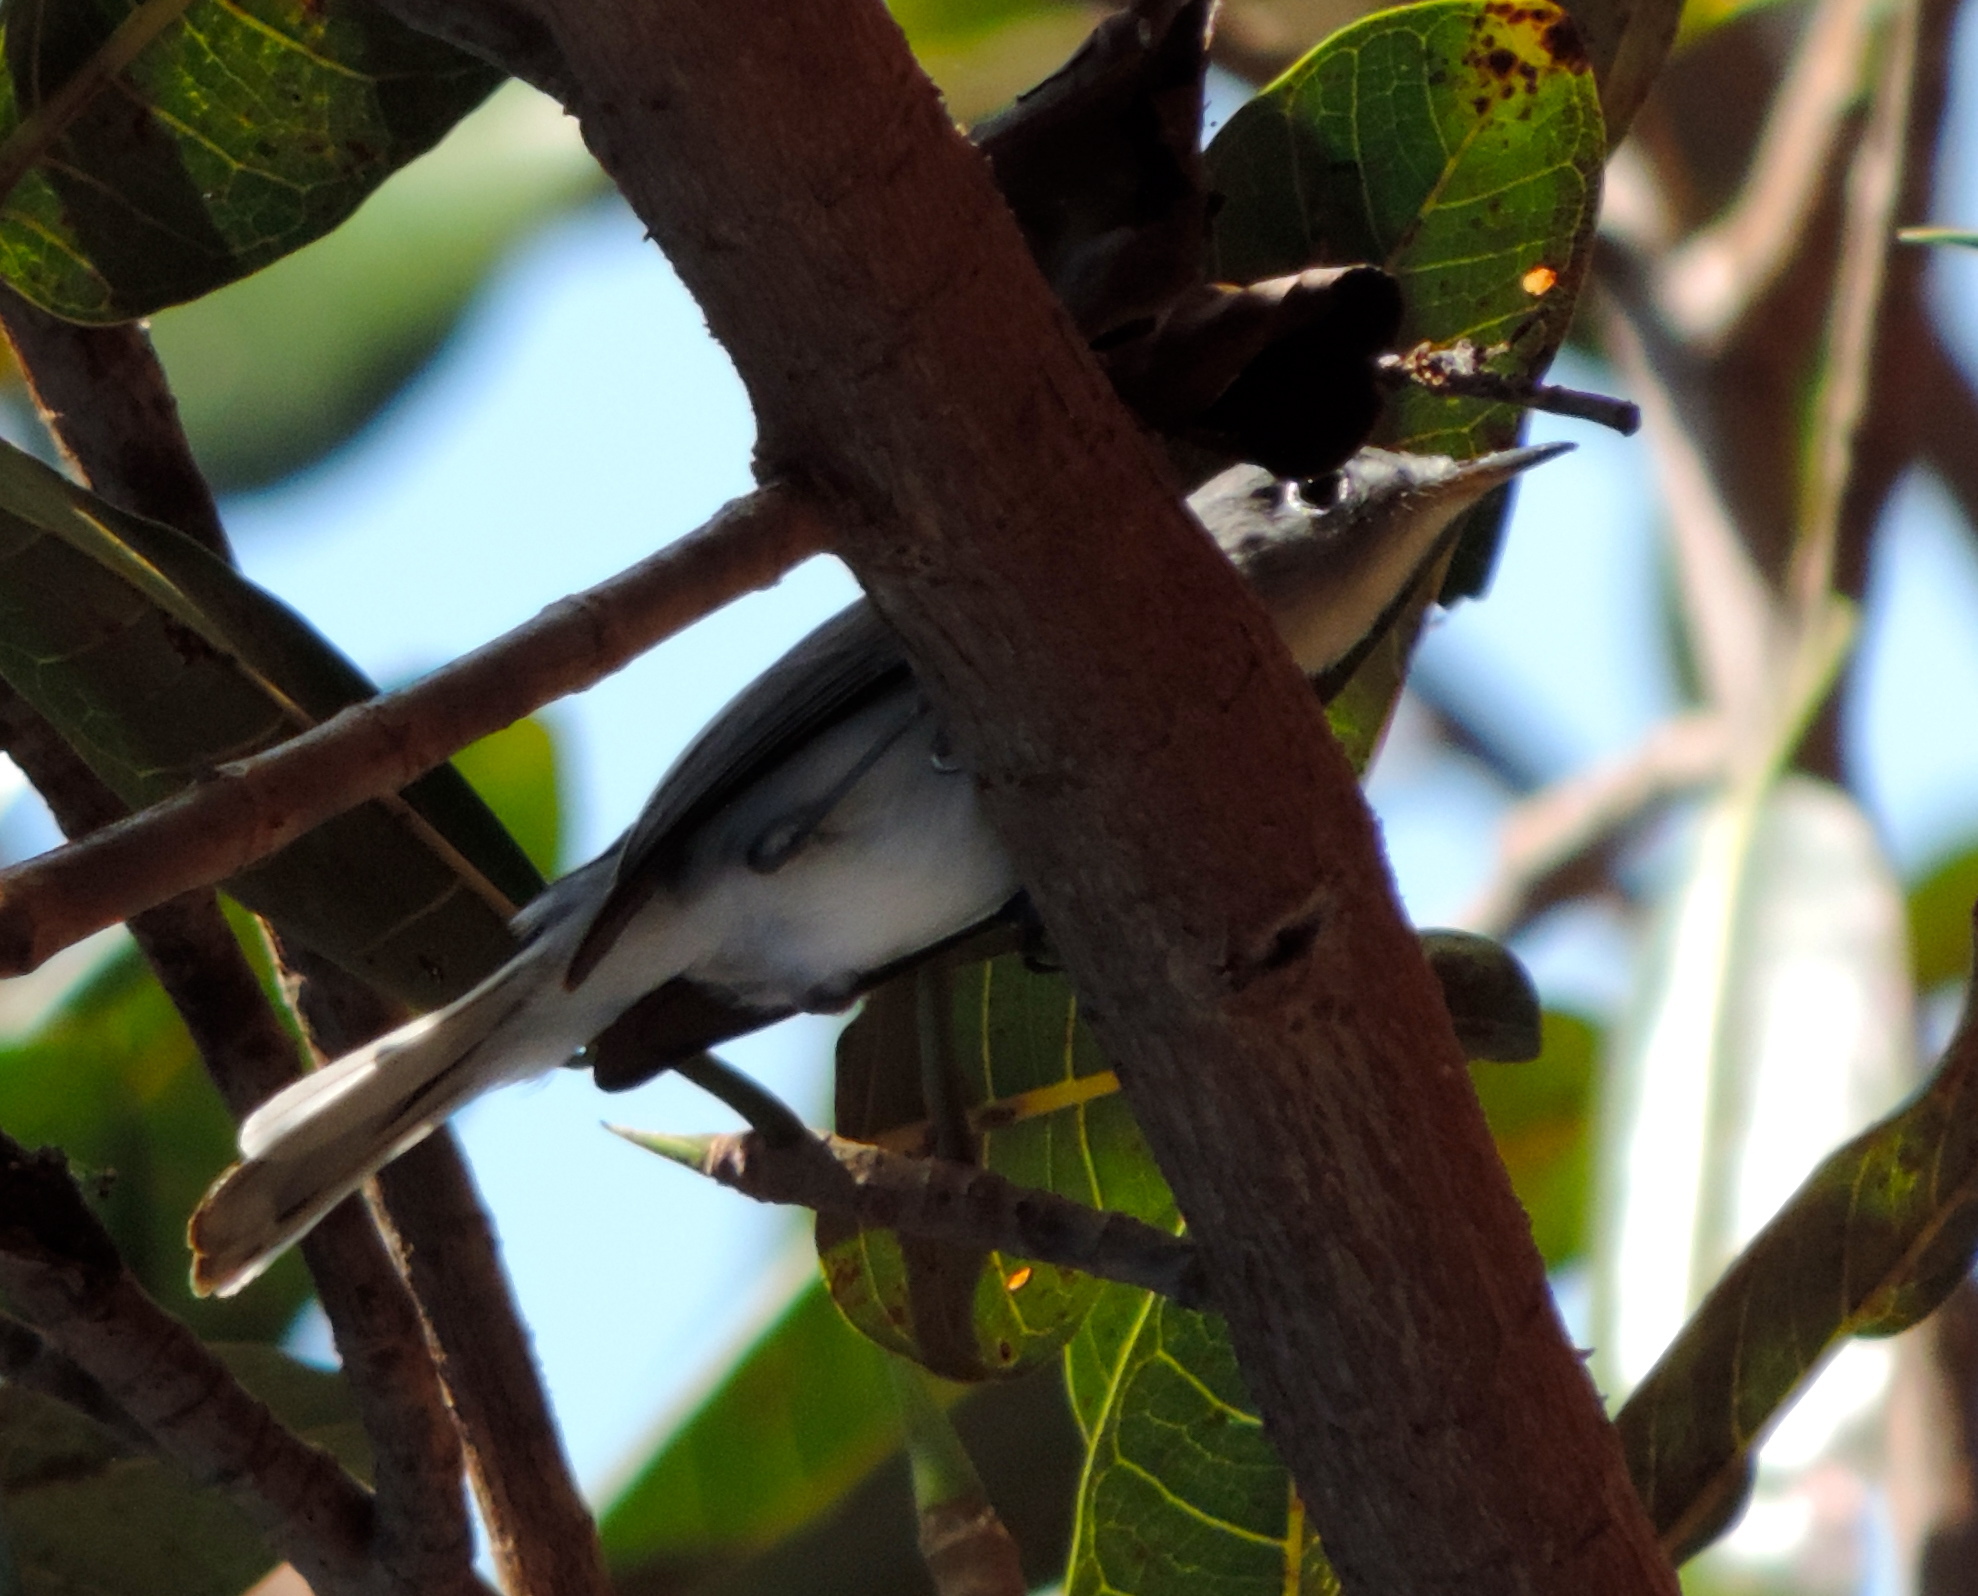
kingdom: Animalia
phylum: Chordata
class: Aves
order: Passeriformes
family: Polioptilidae
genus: Polioptila
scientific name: Polioptila caerulea
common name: Blue-gray gnatcatcher
